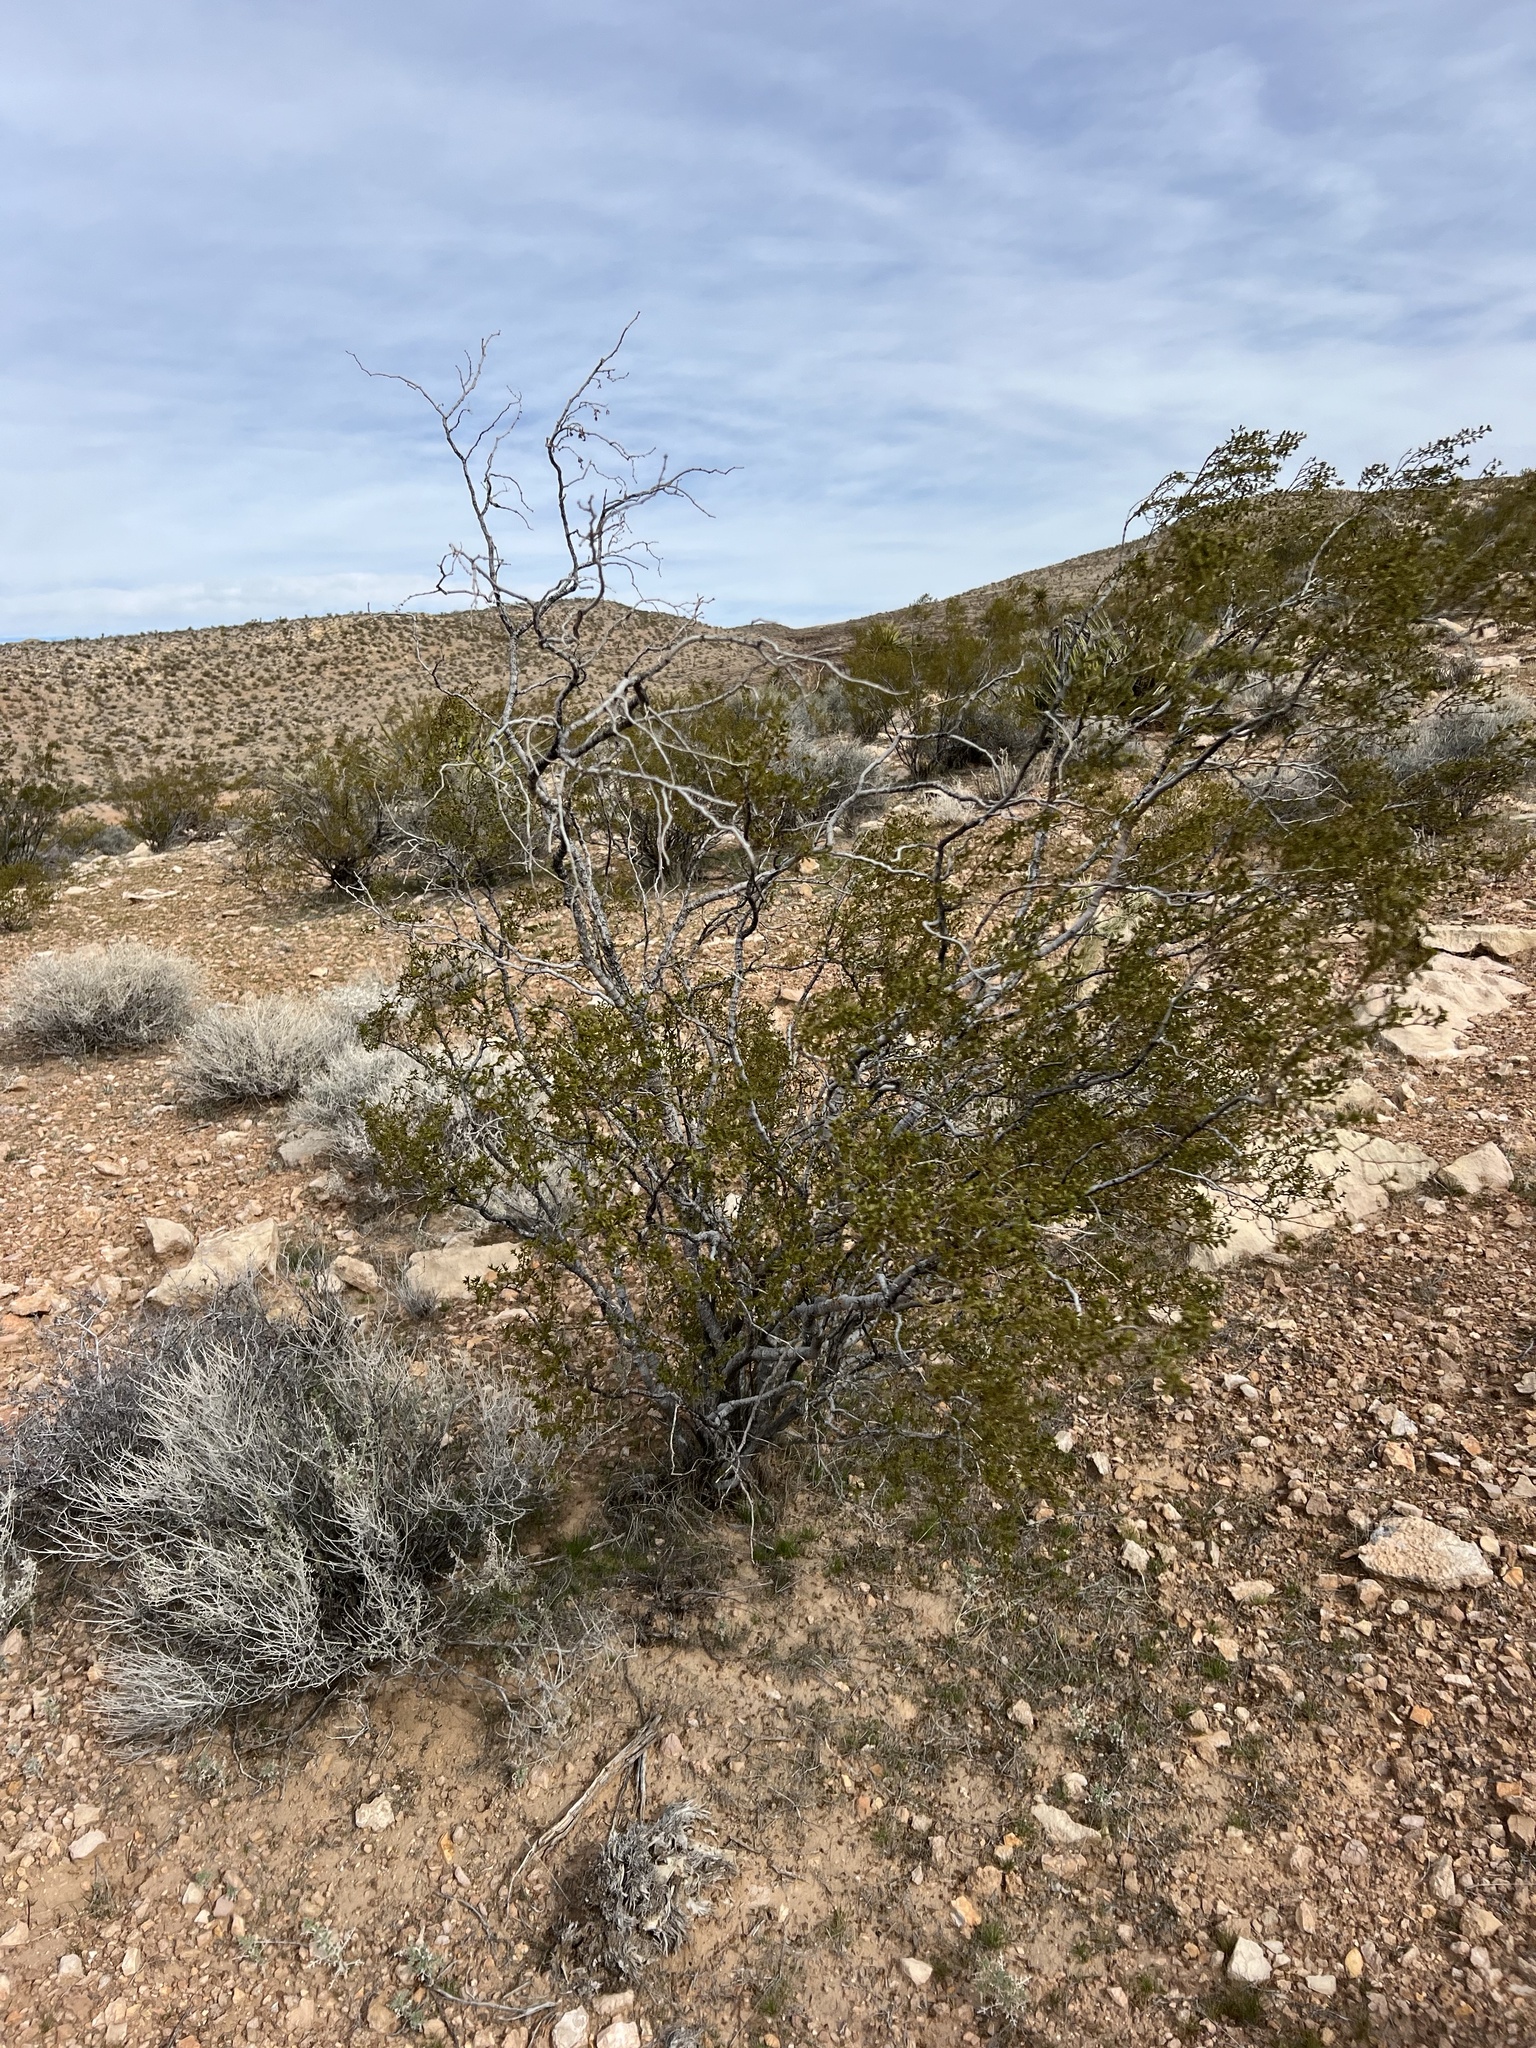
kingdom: Plantae
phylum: Tracheophyta
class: Magnoliopsida
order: Zygophyllales
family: Zygophyllaceae
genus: Larrea
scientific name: Larrea tridentata
